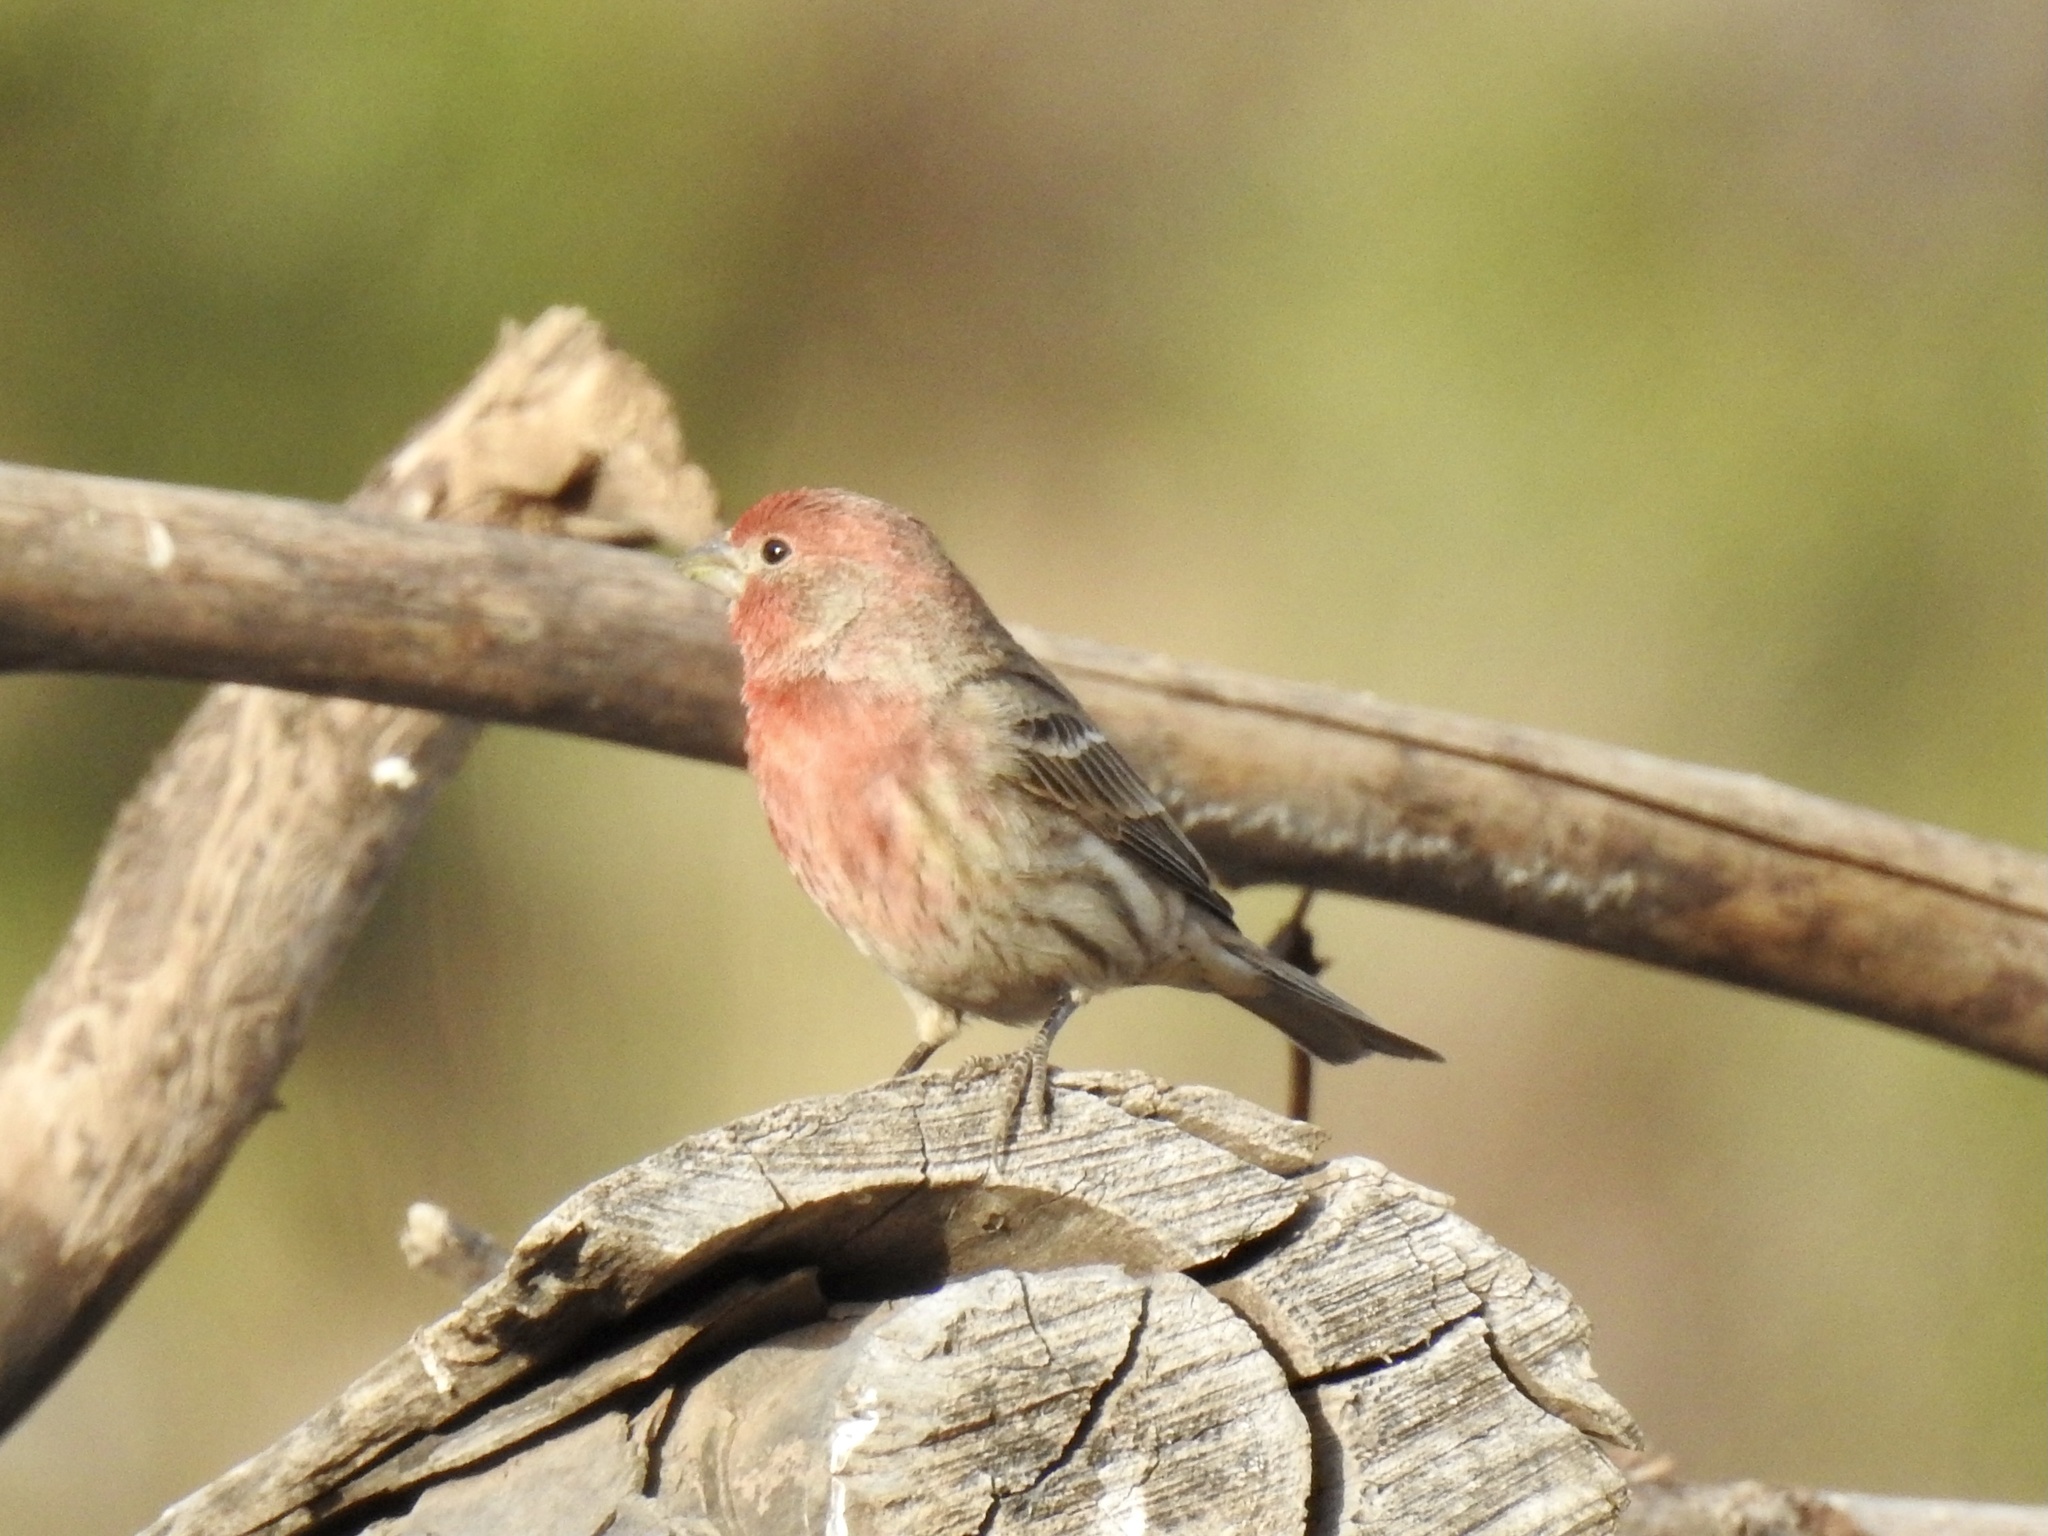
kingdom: Animalia
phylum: Chordata
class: Aves
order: Passeriformes
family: Fringillidae
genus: Haemorhous
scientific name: Haemorhous mexicanus
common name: House finch
